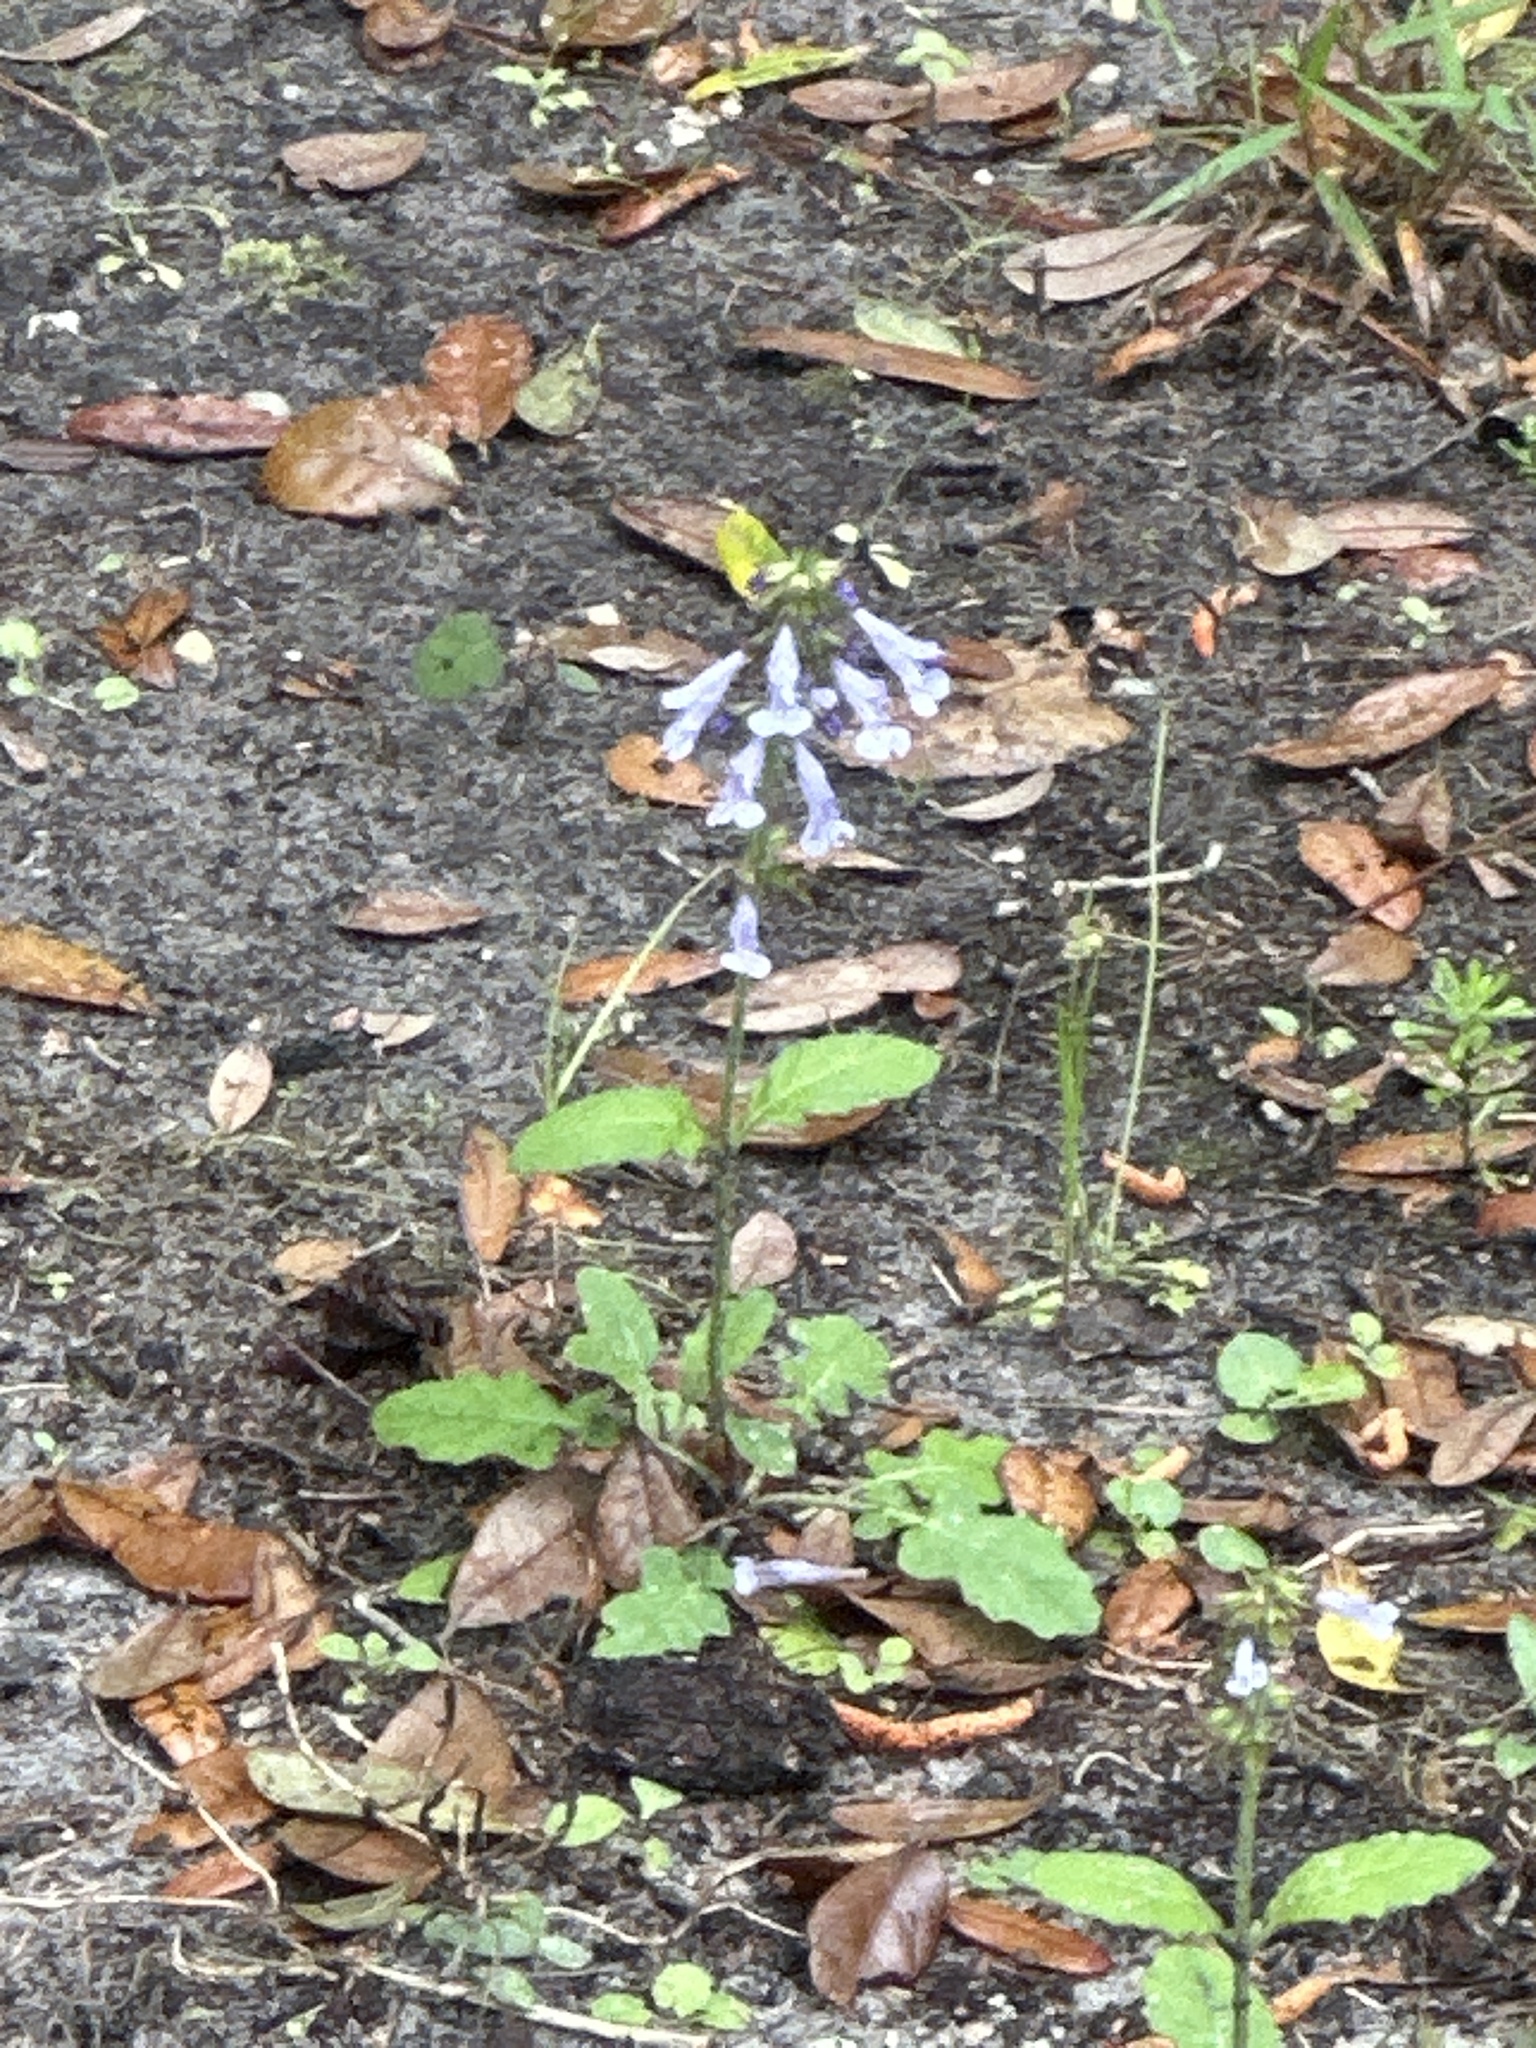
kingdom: Plantae
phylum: Tracheophyta
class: Magnoliopsida
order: Lamiales
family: Lamiaceae
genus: Salvia
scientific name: Salvia lyrata
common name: Cancerweed
